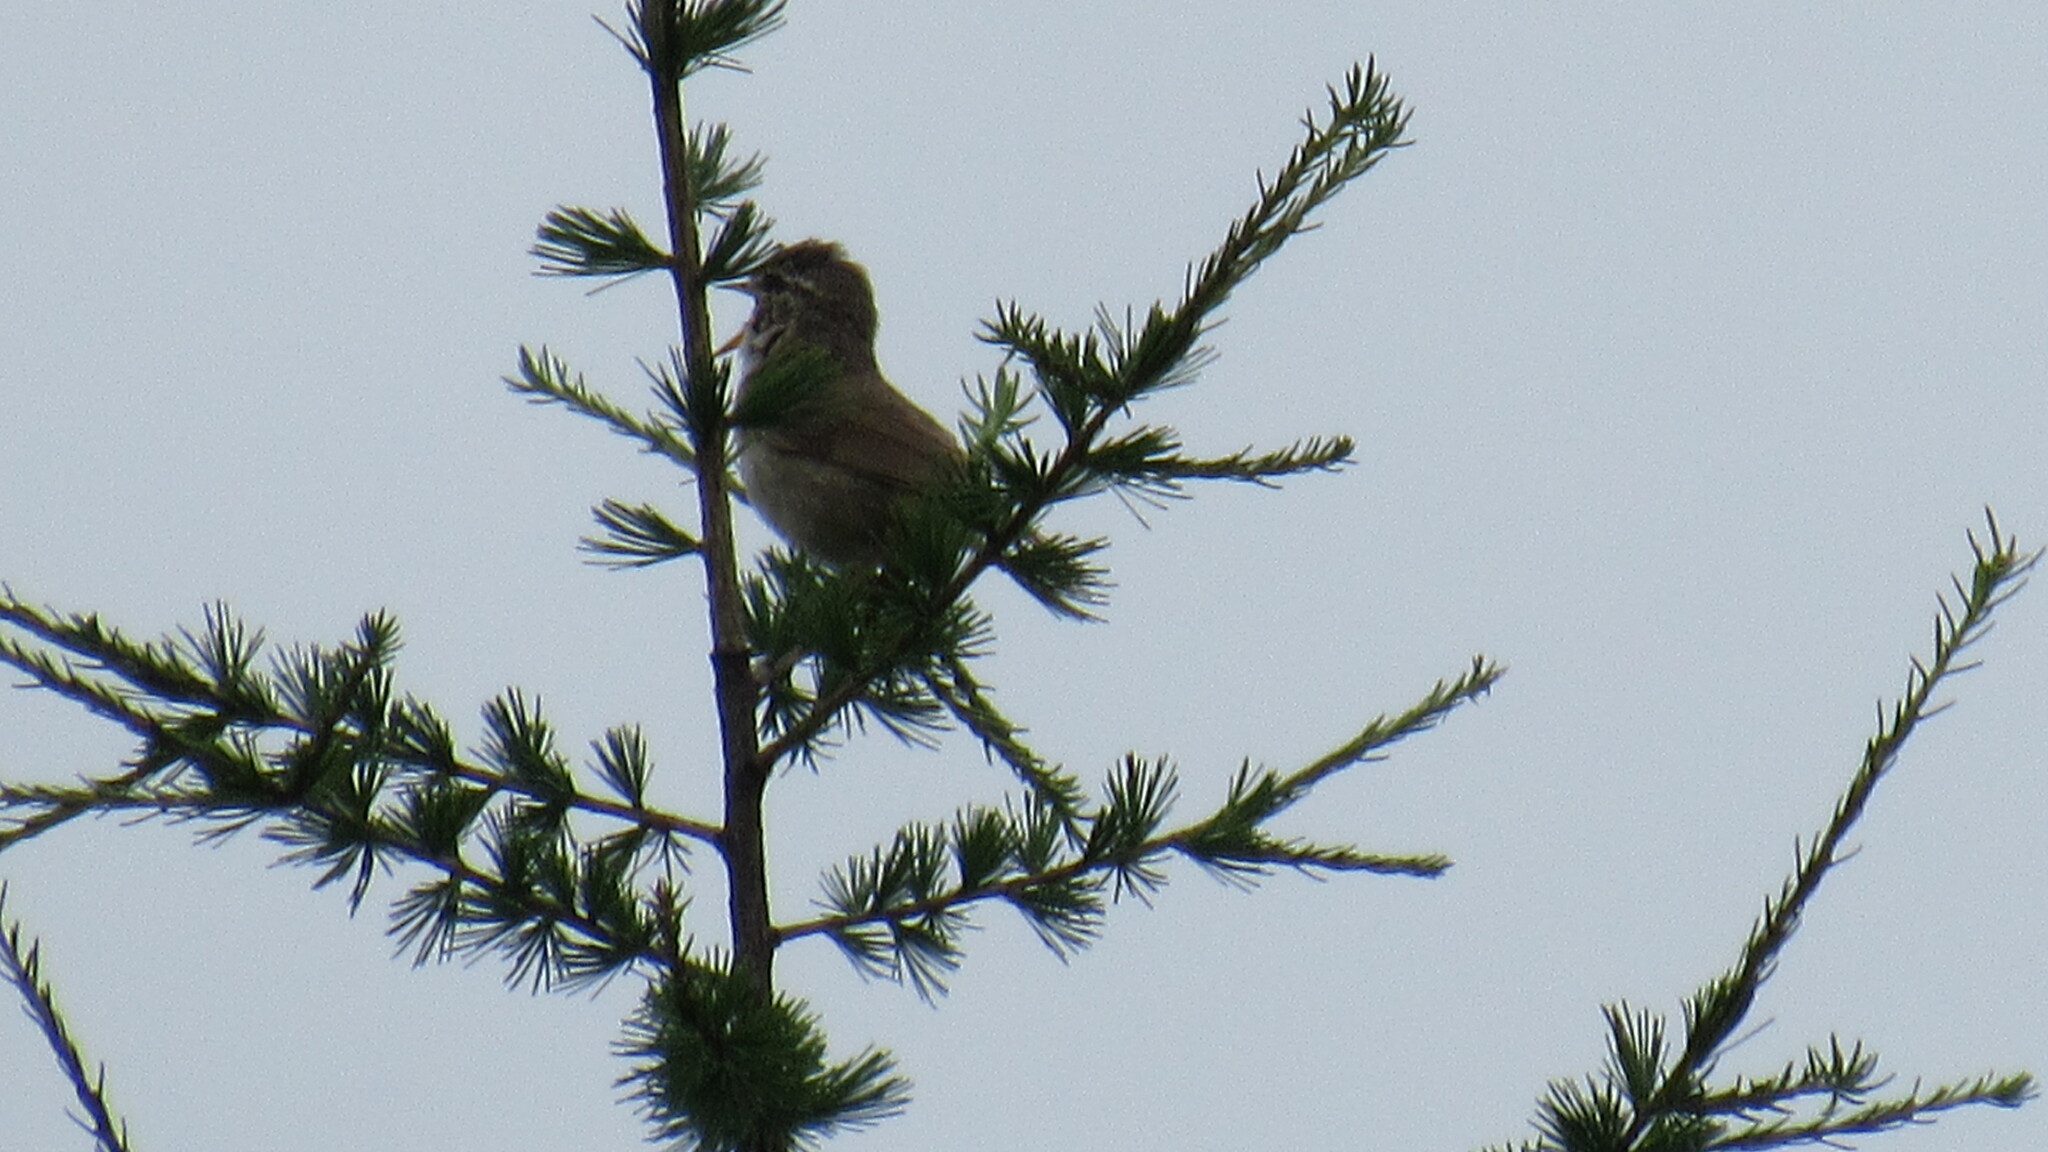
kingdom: Animalia
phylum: Chordata
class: Aves
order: Passeriformes
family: Phylloscopidae
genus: Phylloscopus
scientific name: Phylloscopus schwarzi
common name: Radde's warbler
